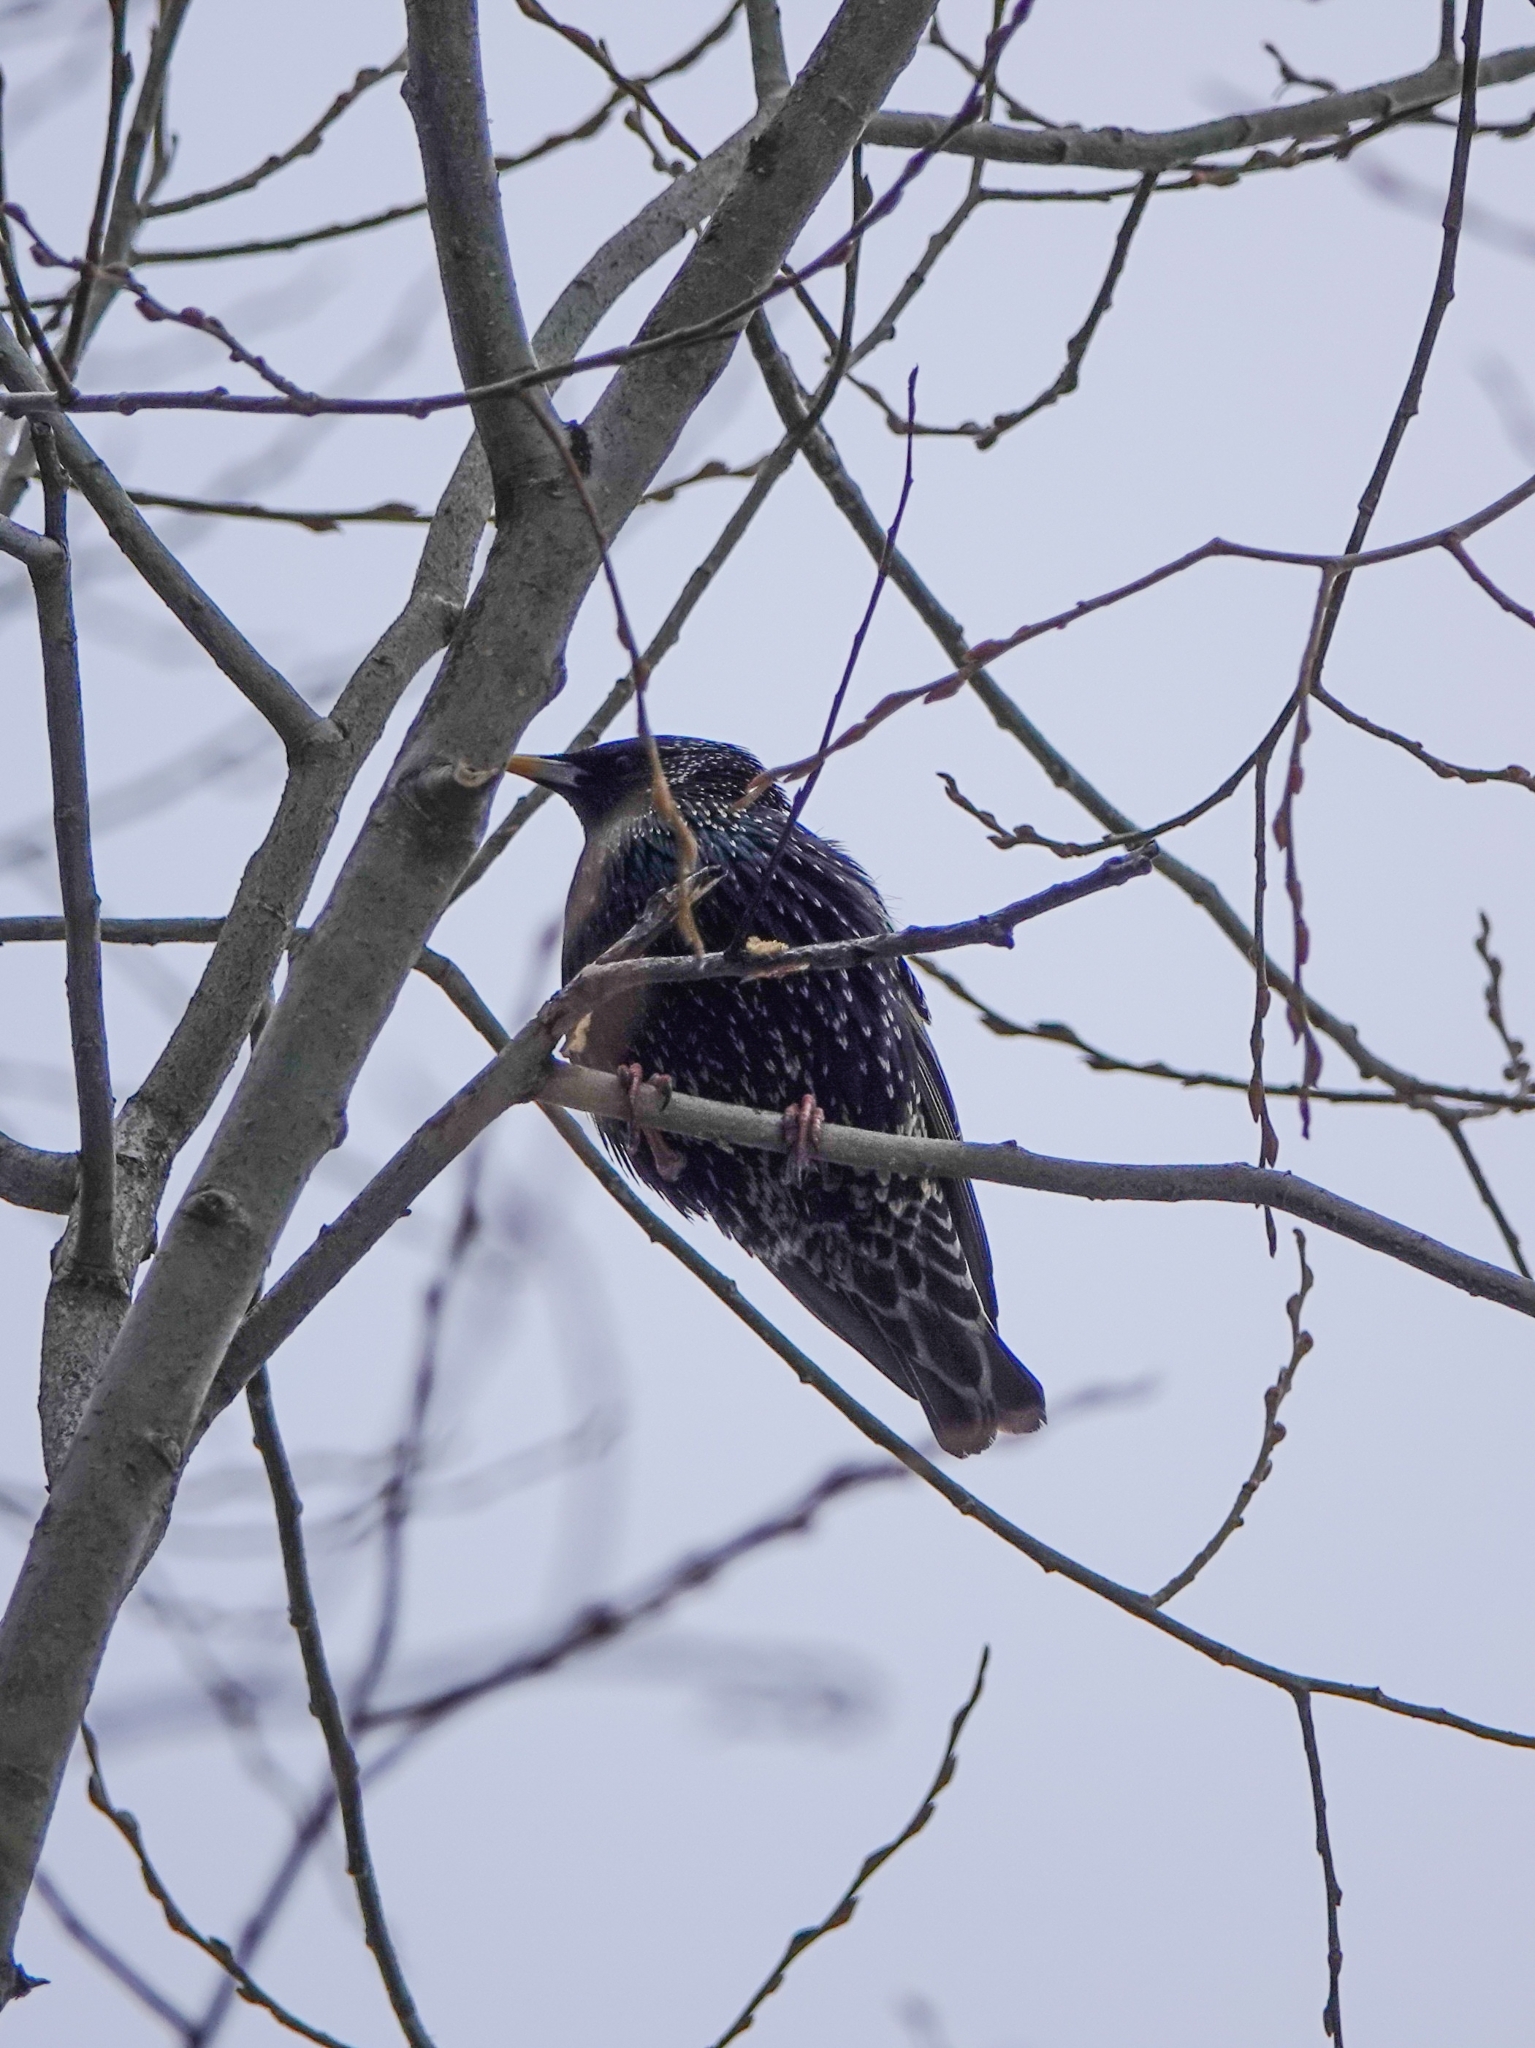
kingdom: Animalia
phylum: Chordata
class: Aves
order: Passeriformes
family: Sturnidae
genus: Sturnus
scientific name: Sturnus vulgaris
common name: Common starling
